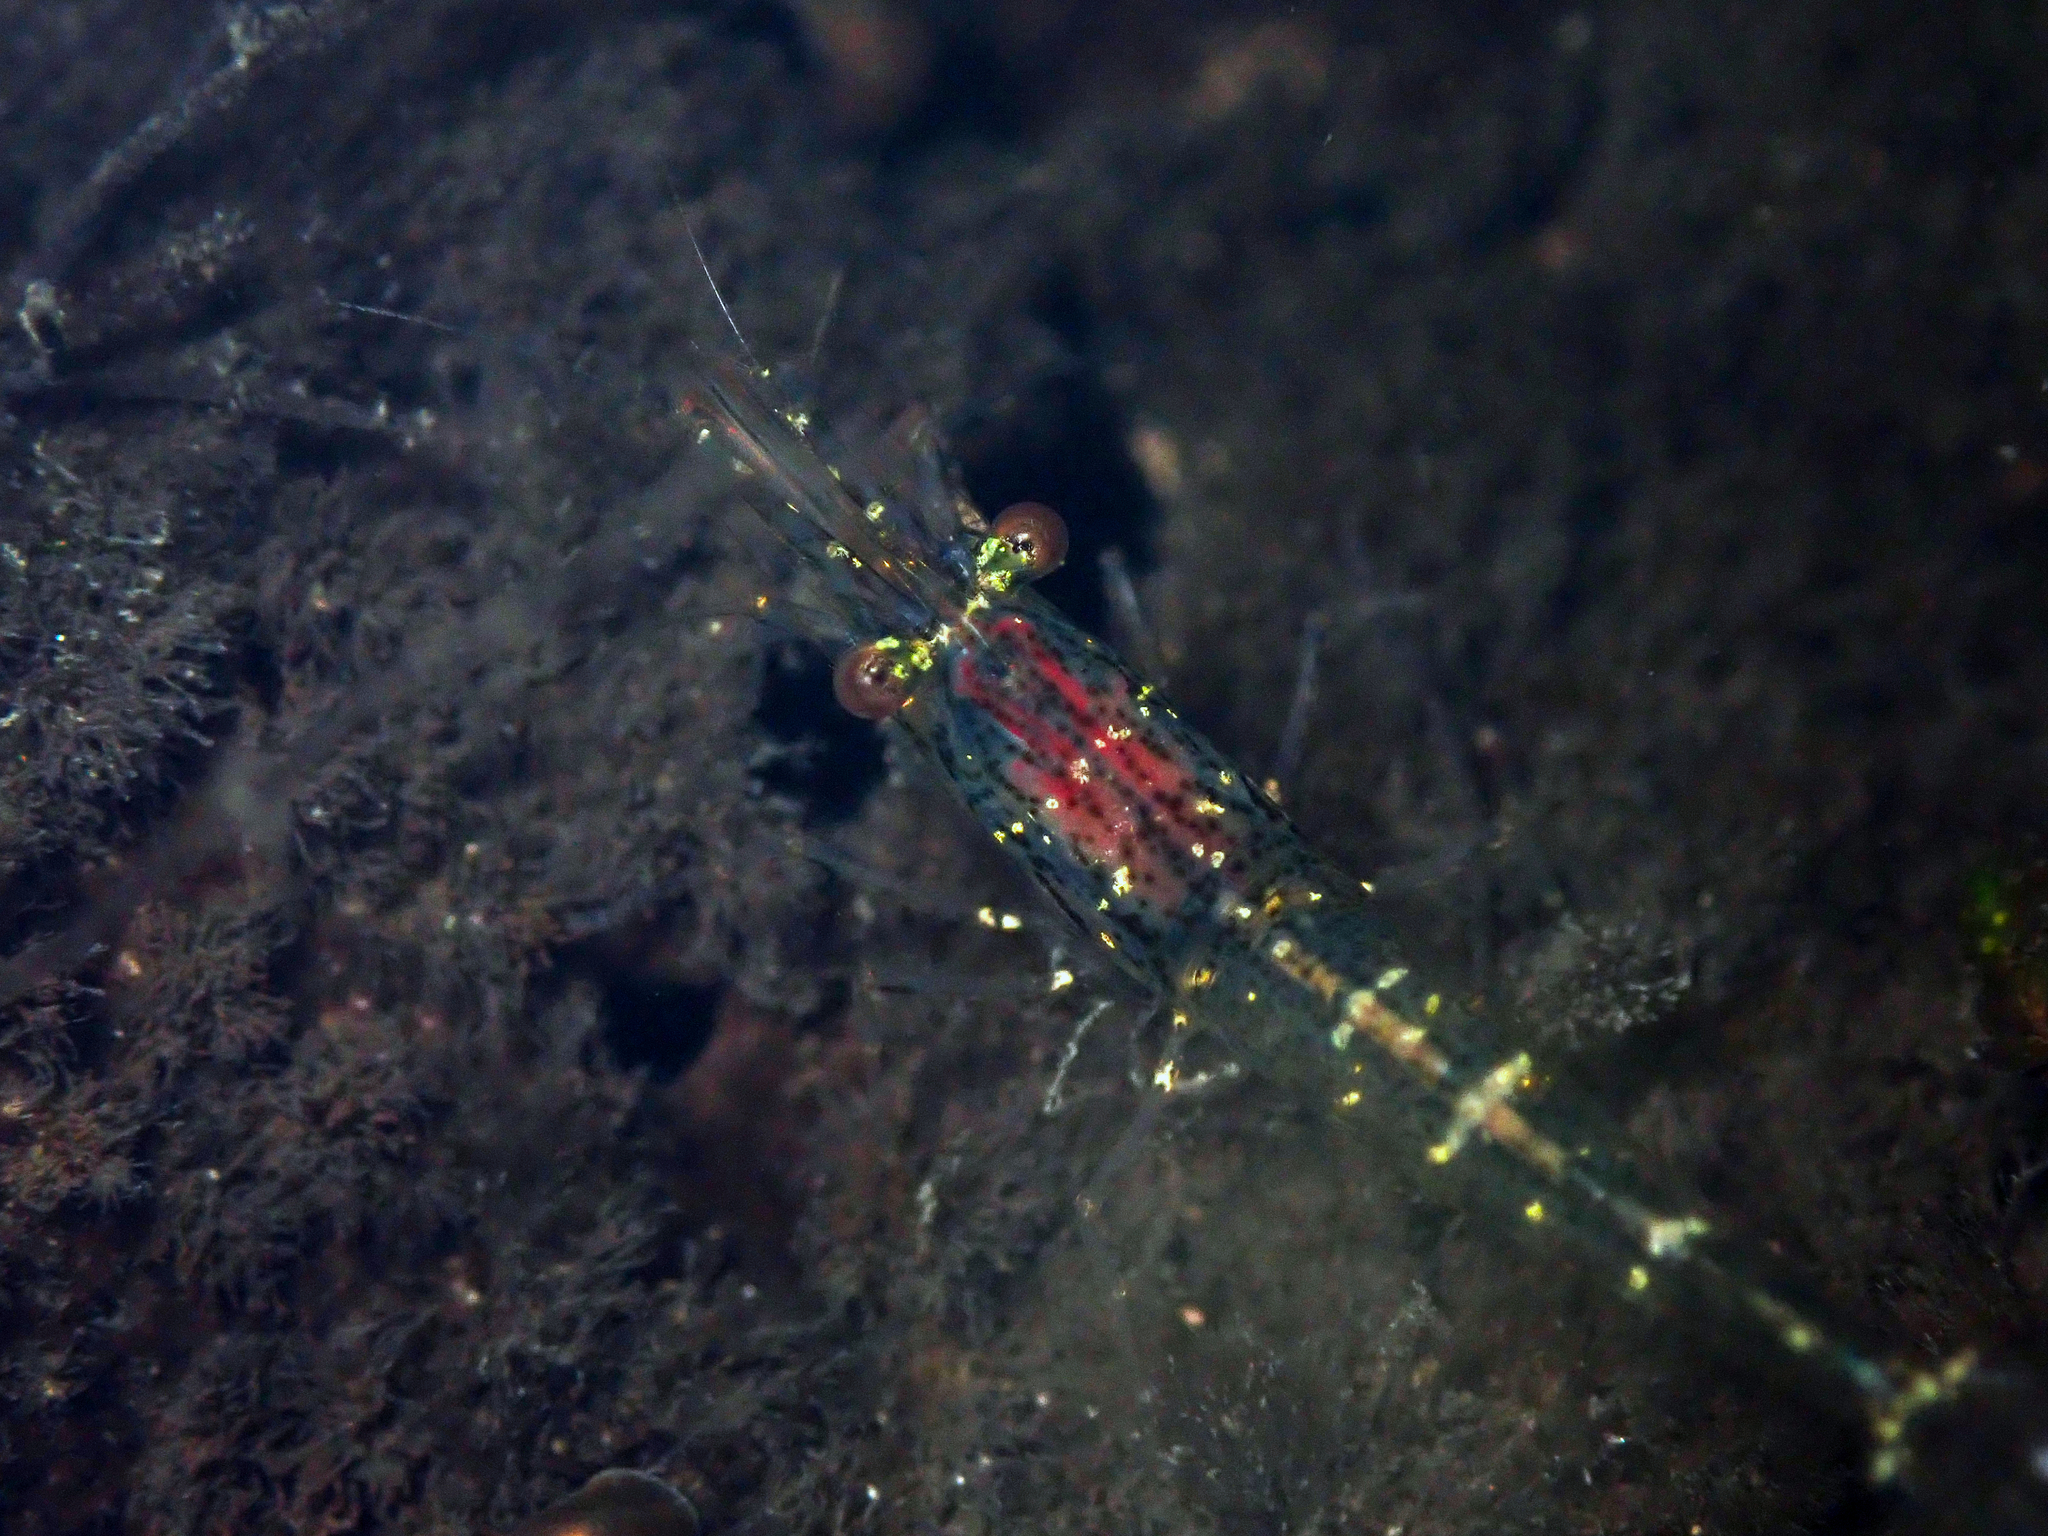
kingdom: Animalia
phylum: Arthropoda
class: Malacostraca
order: Decapoda
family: Atyidae
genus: Paratya
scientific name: Paratya curvirostris
